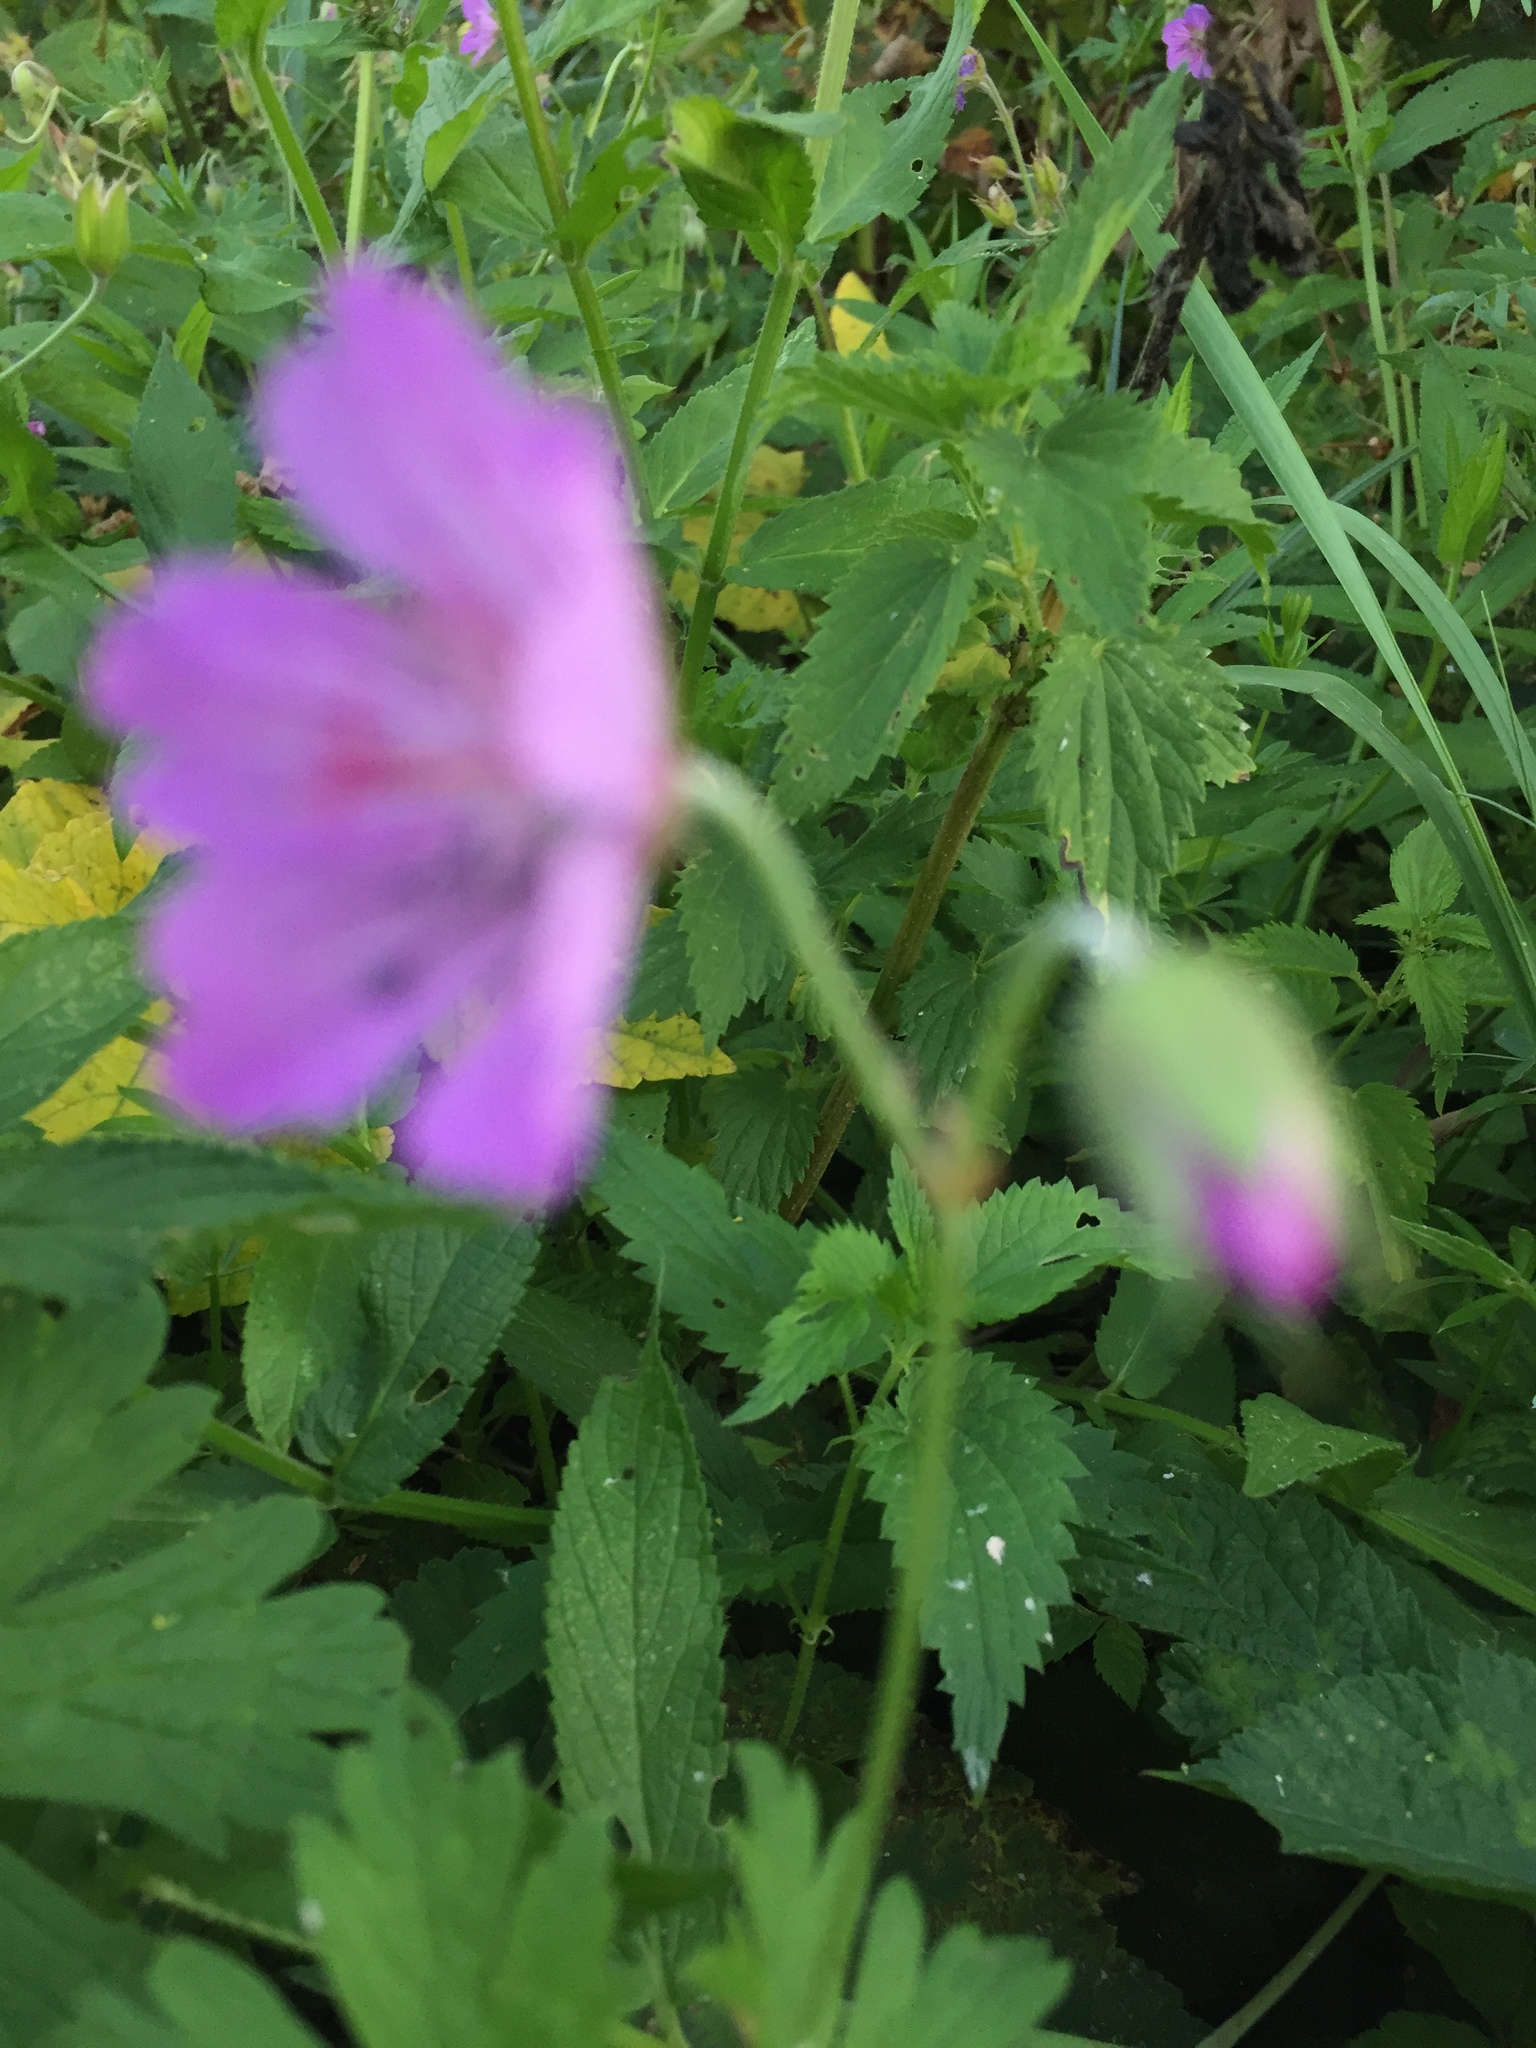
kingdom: Plantae
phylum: Tracheophyta
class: Magnoliopsida
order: Geraniales
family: Geraniaceae
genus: Geranium
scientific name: Geranium collinum
